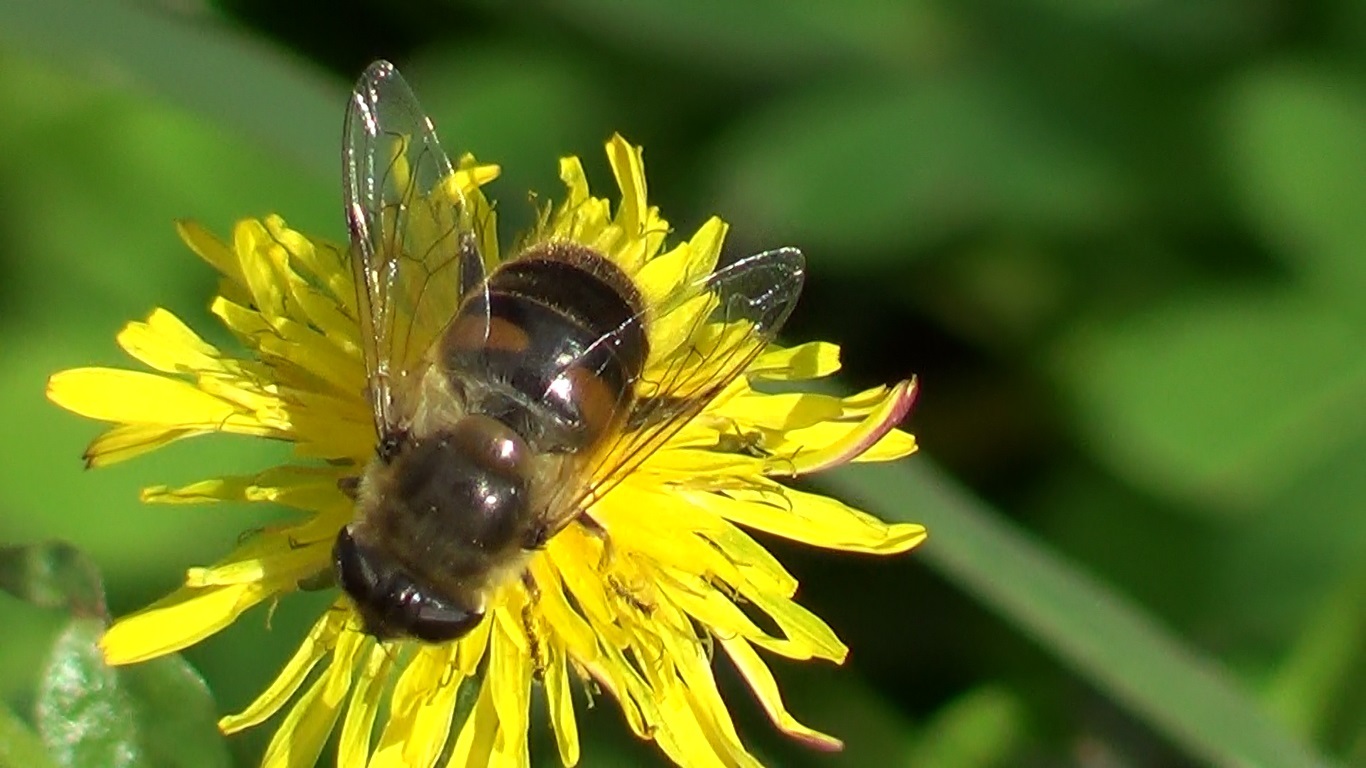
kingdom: Animalia
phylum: Arthropoda
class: Insecta
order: Diptera
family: Syrphidae
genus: Eristalis
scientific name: Eristalis tenax
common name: Drone fly
